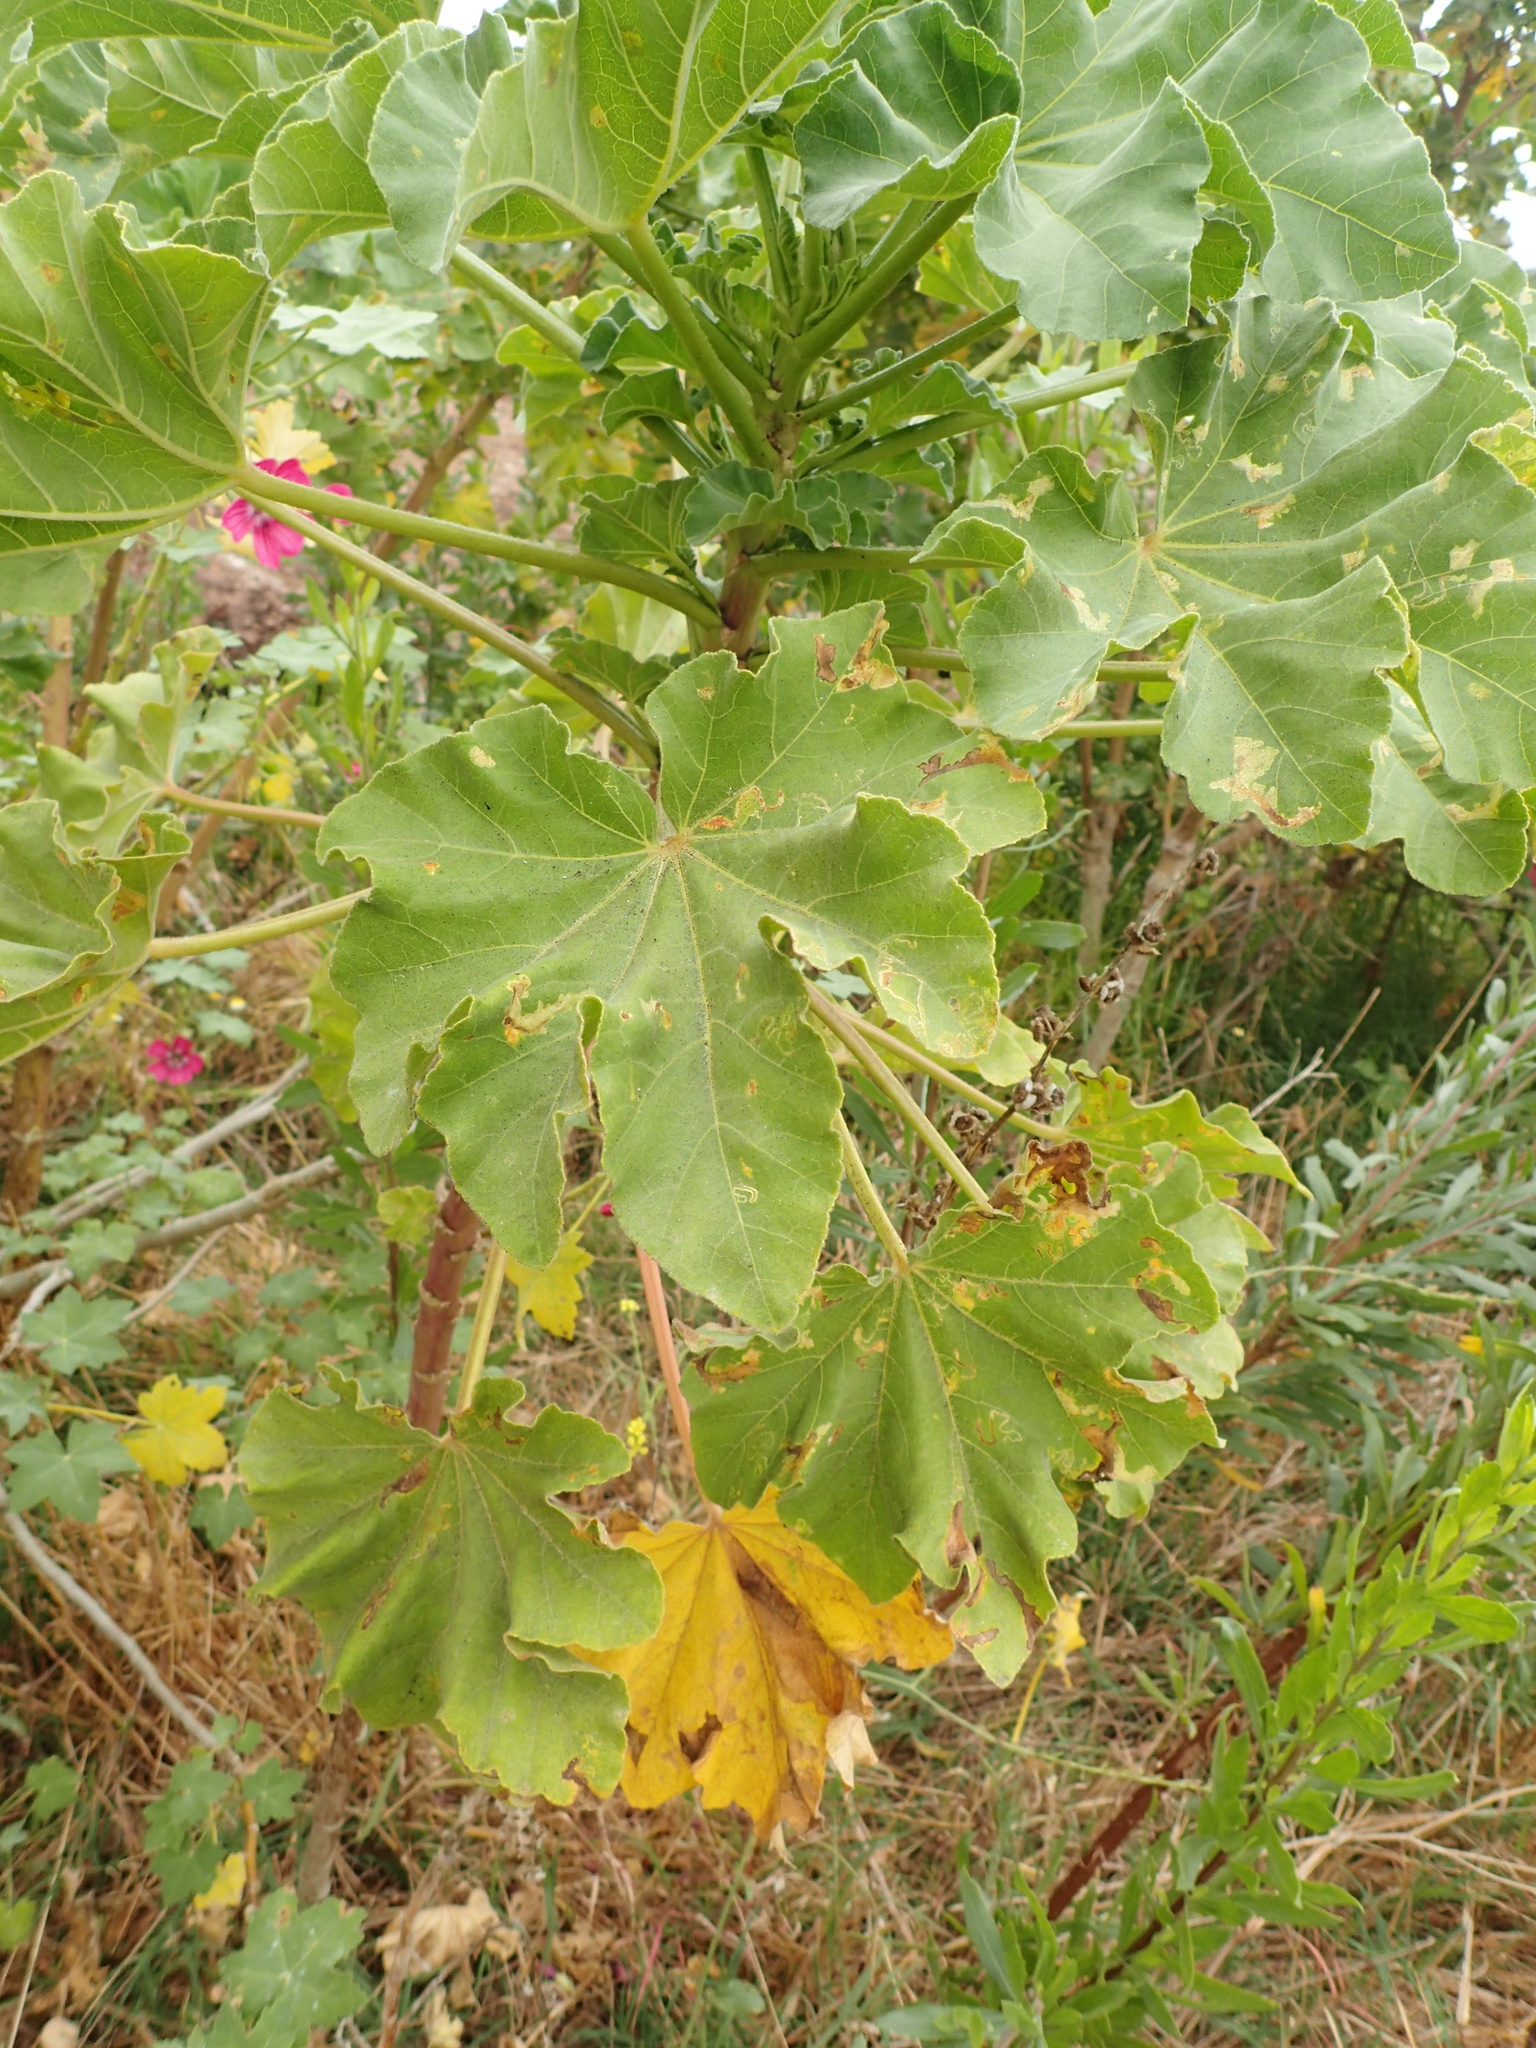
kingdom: Plantae
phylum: Tracheophyta
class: Magnoliopsida
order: Malvales
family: Malvaceae
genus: Malva
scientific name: Malva arborea
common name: Tree mallow
